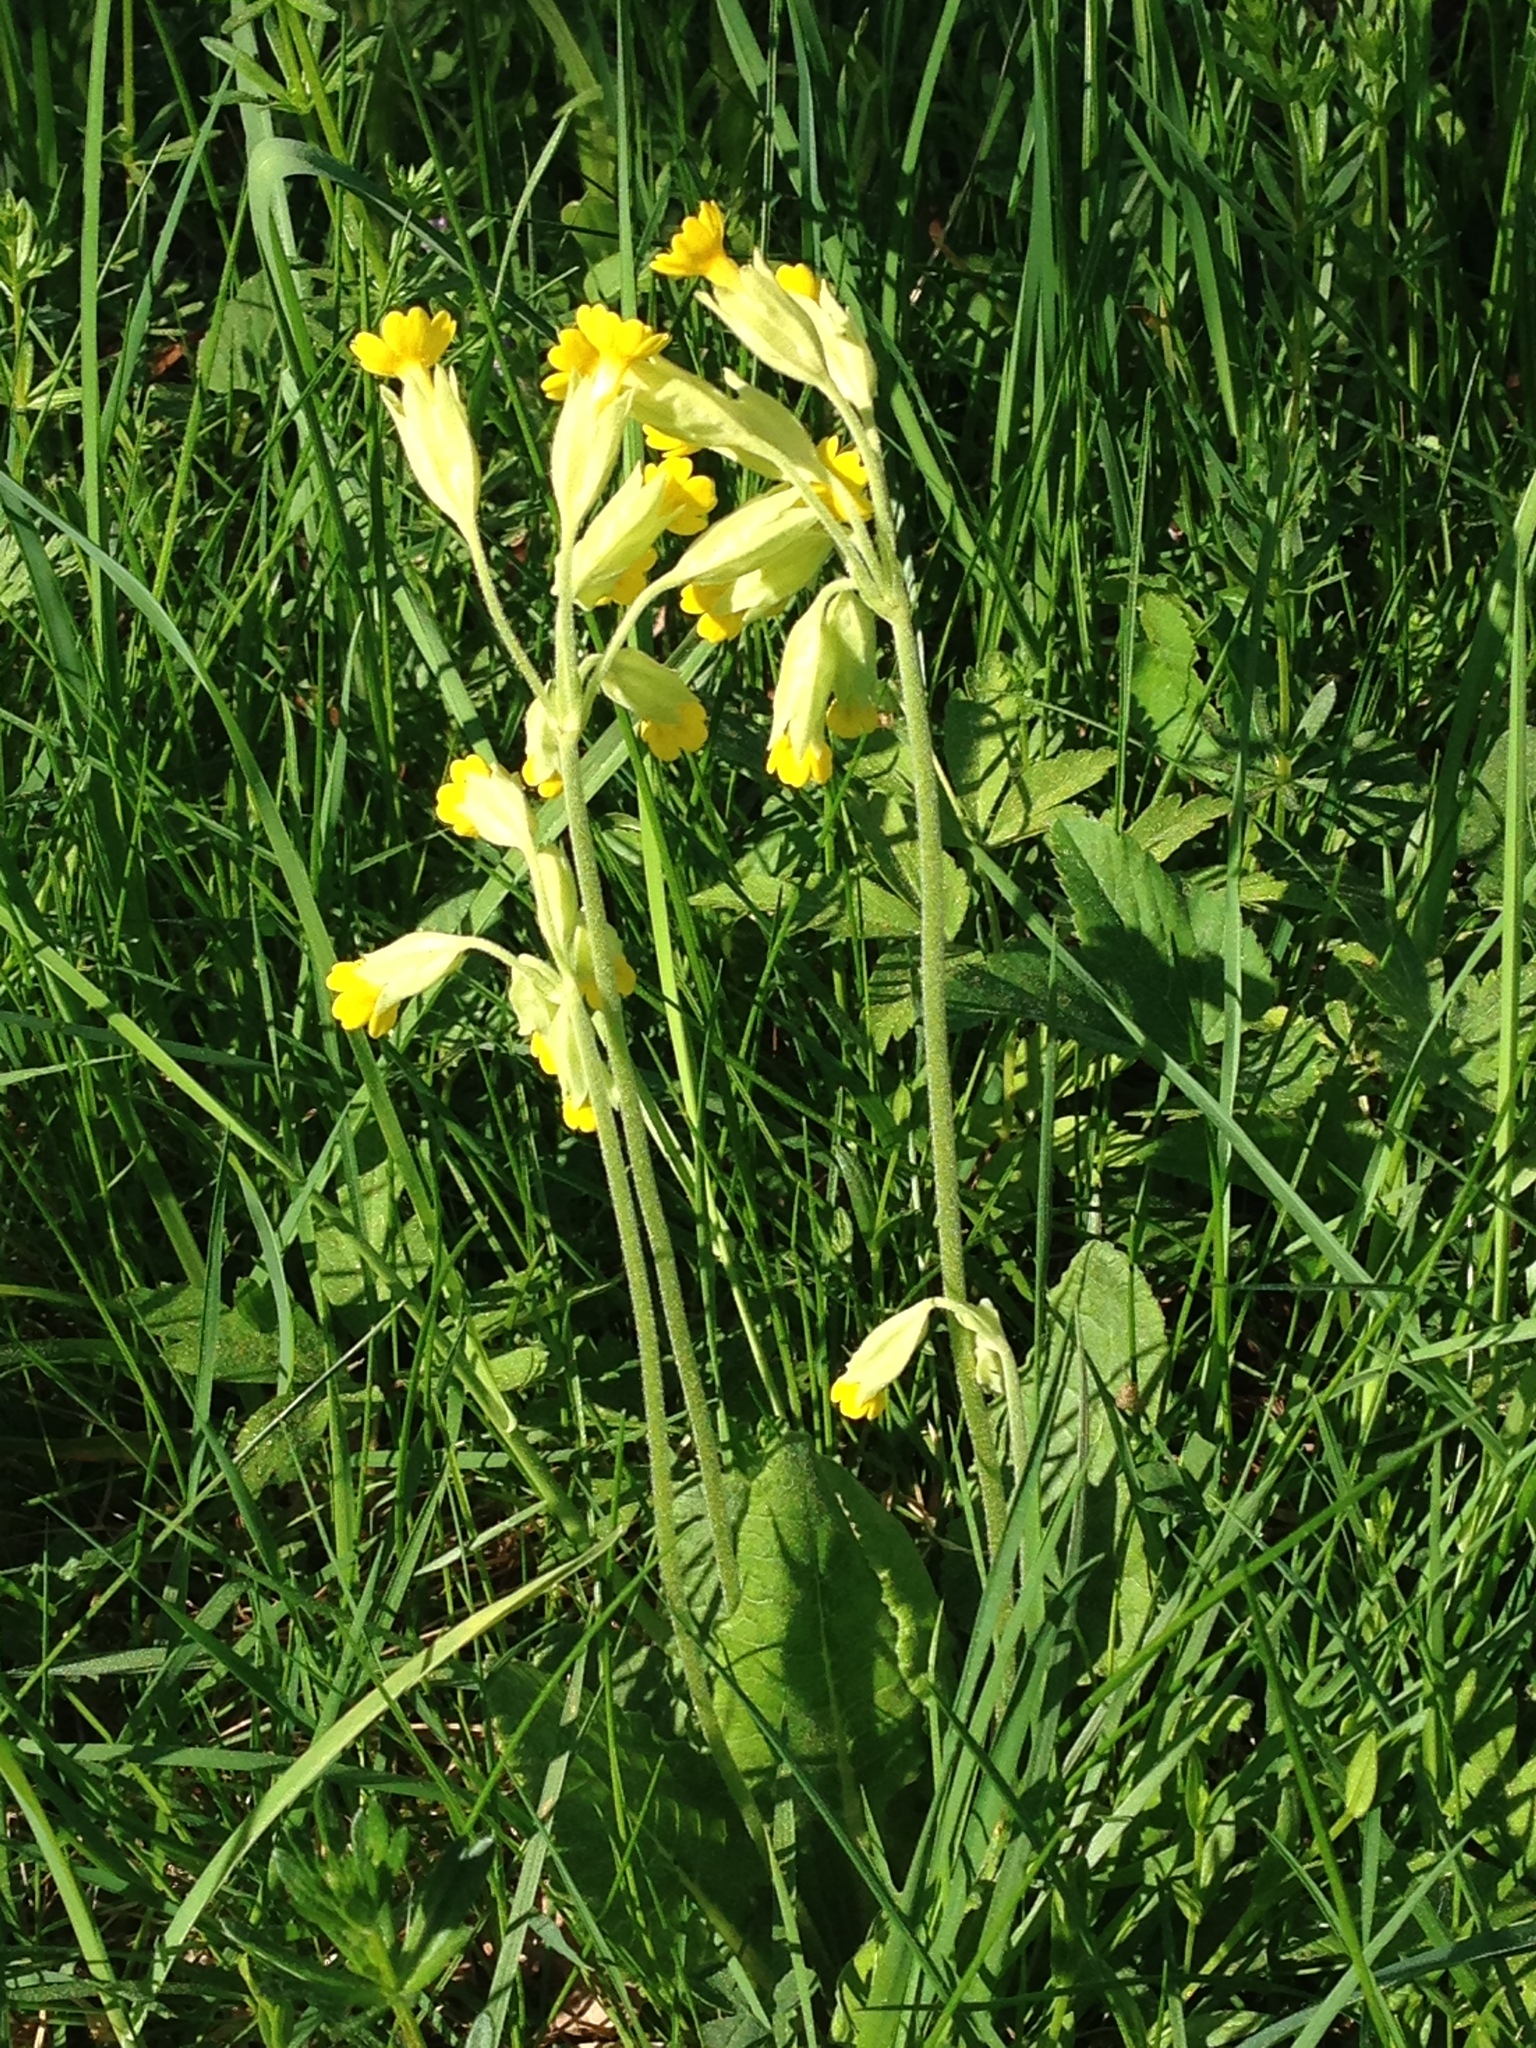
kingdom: Plantae
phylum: Tracheophyta
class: Magnoliopsida
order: Ericales
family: Primulaceae
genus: Primula
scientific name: Primula veris
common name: Cowslip
